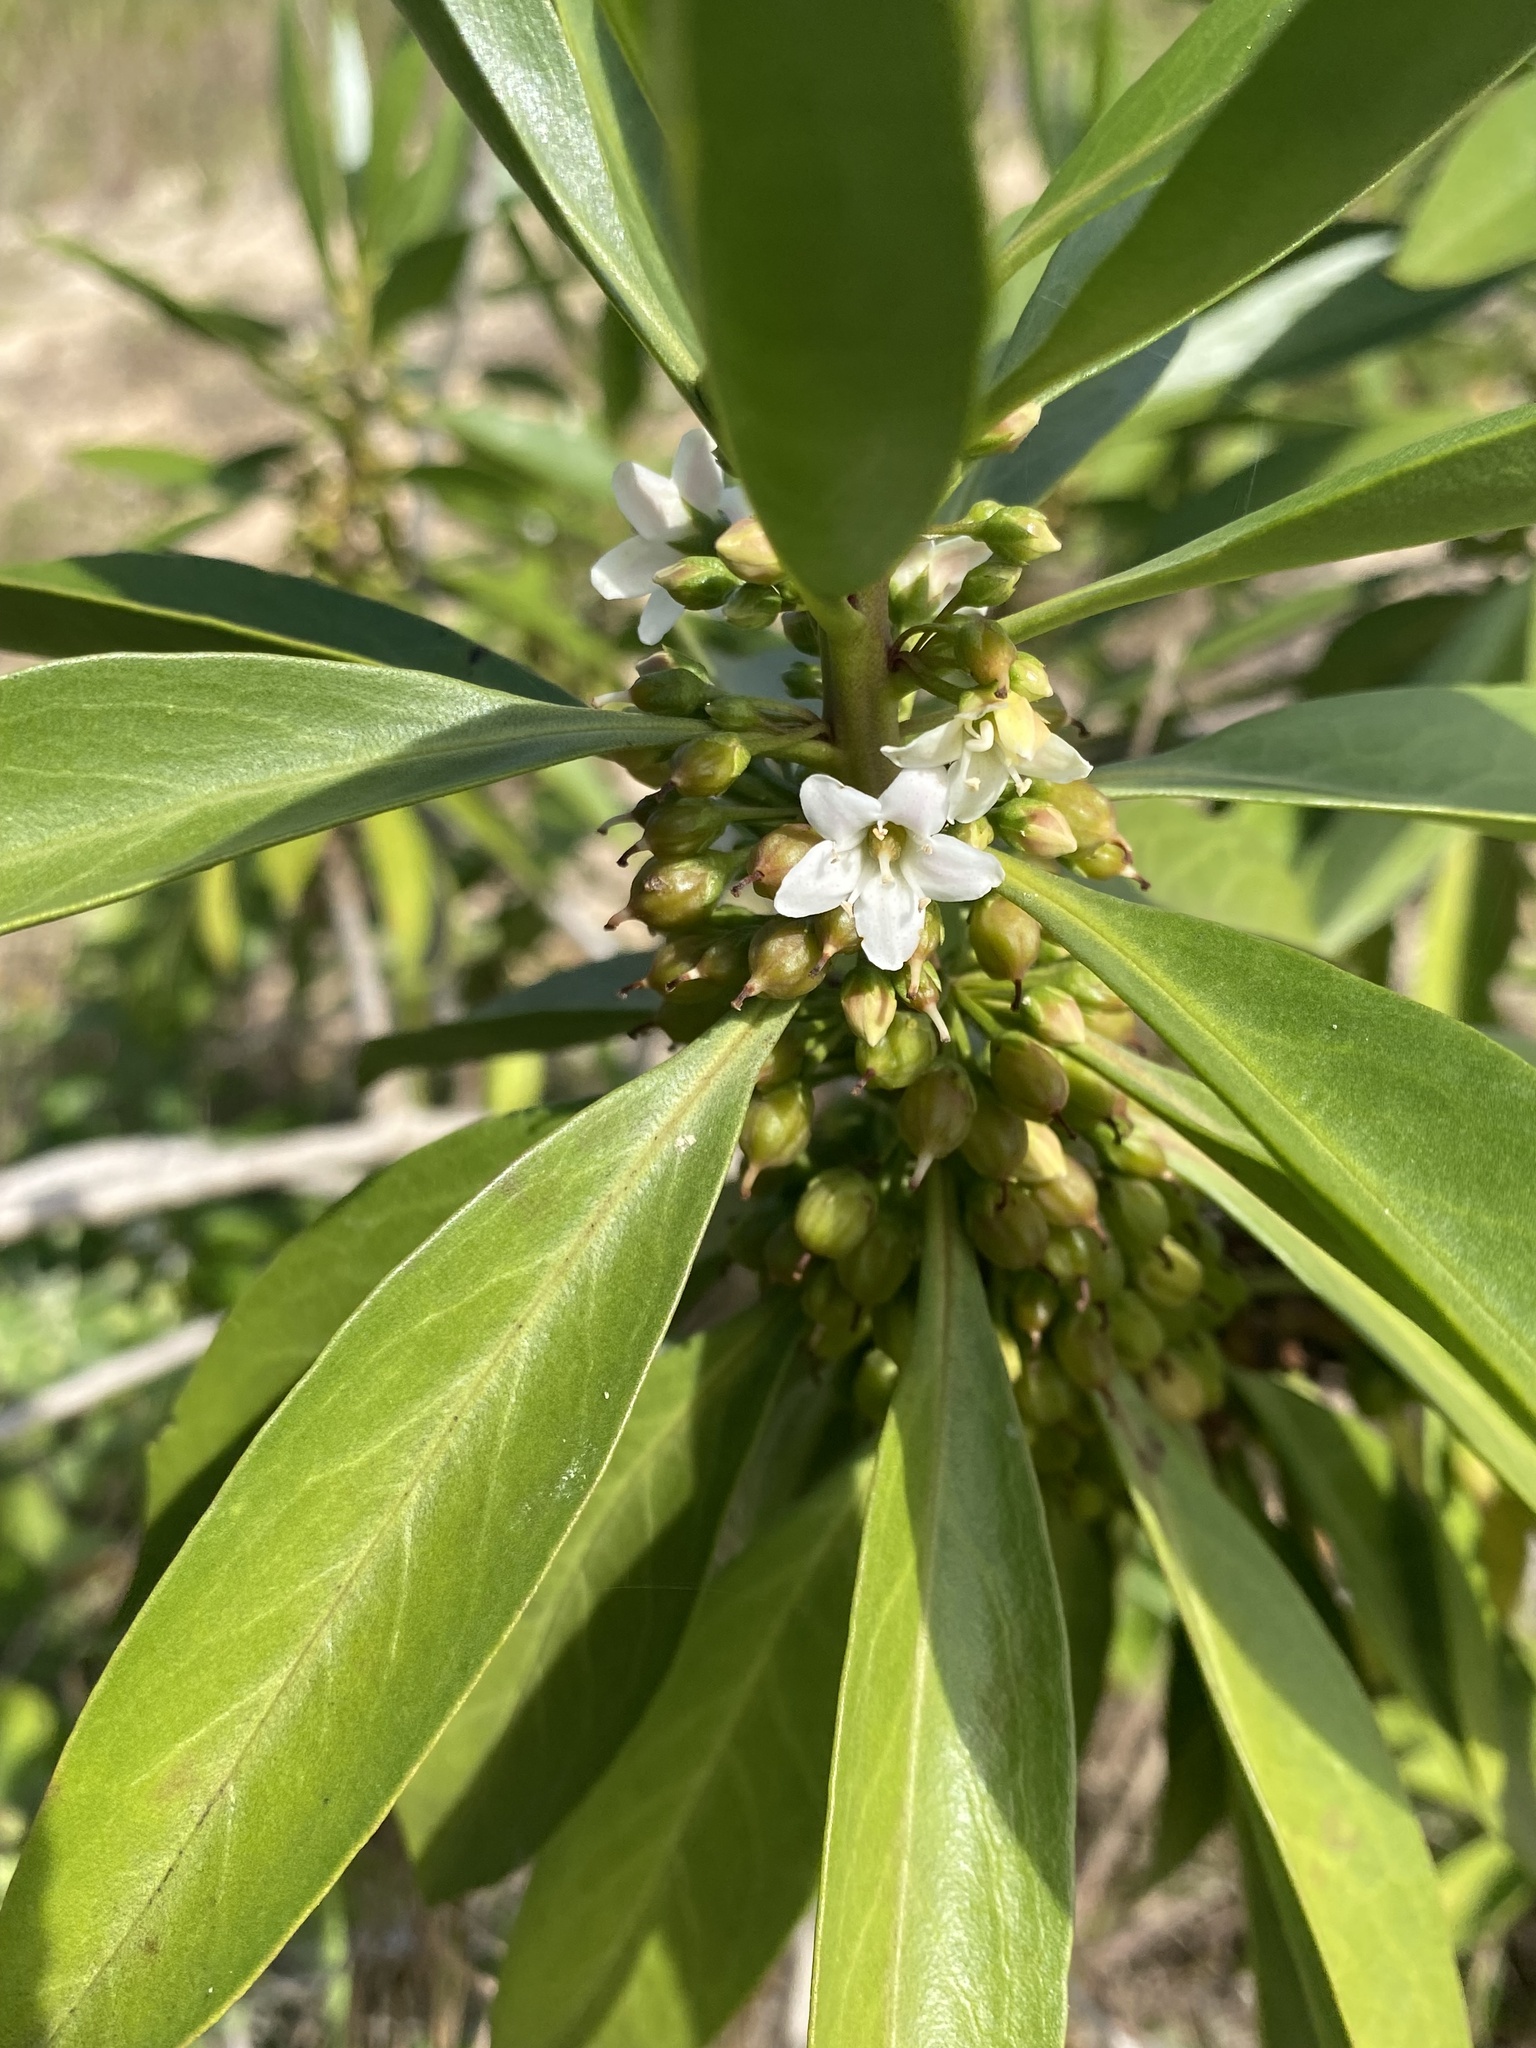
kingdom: Plantae
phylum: Tracheophyta
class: Magnoliopsida
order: Lamiales
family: Scrophulariaceae
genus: Myoporum
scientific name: Myoporum sandwicense
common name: Bastard-sandalwood
